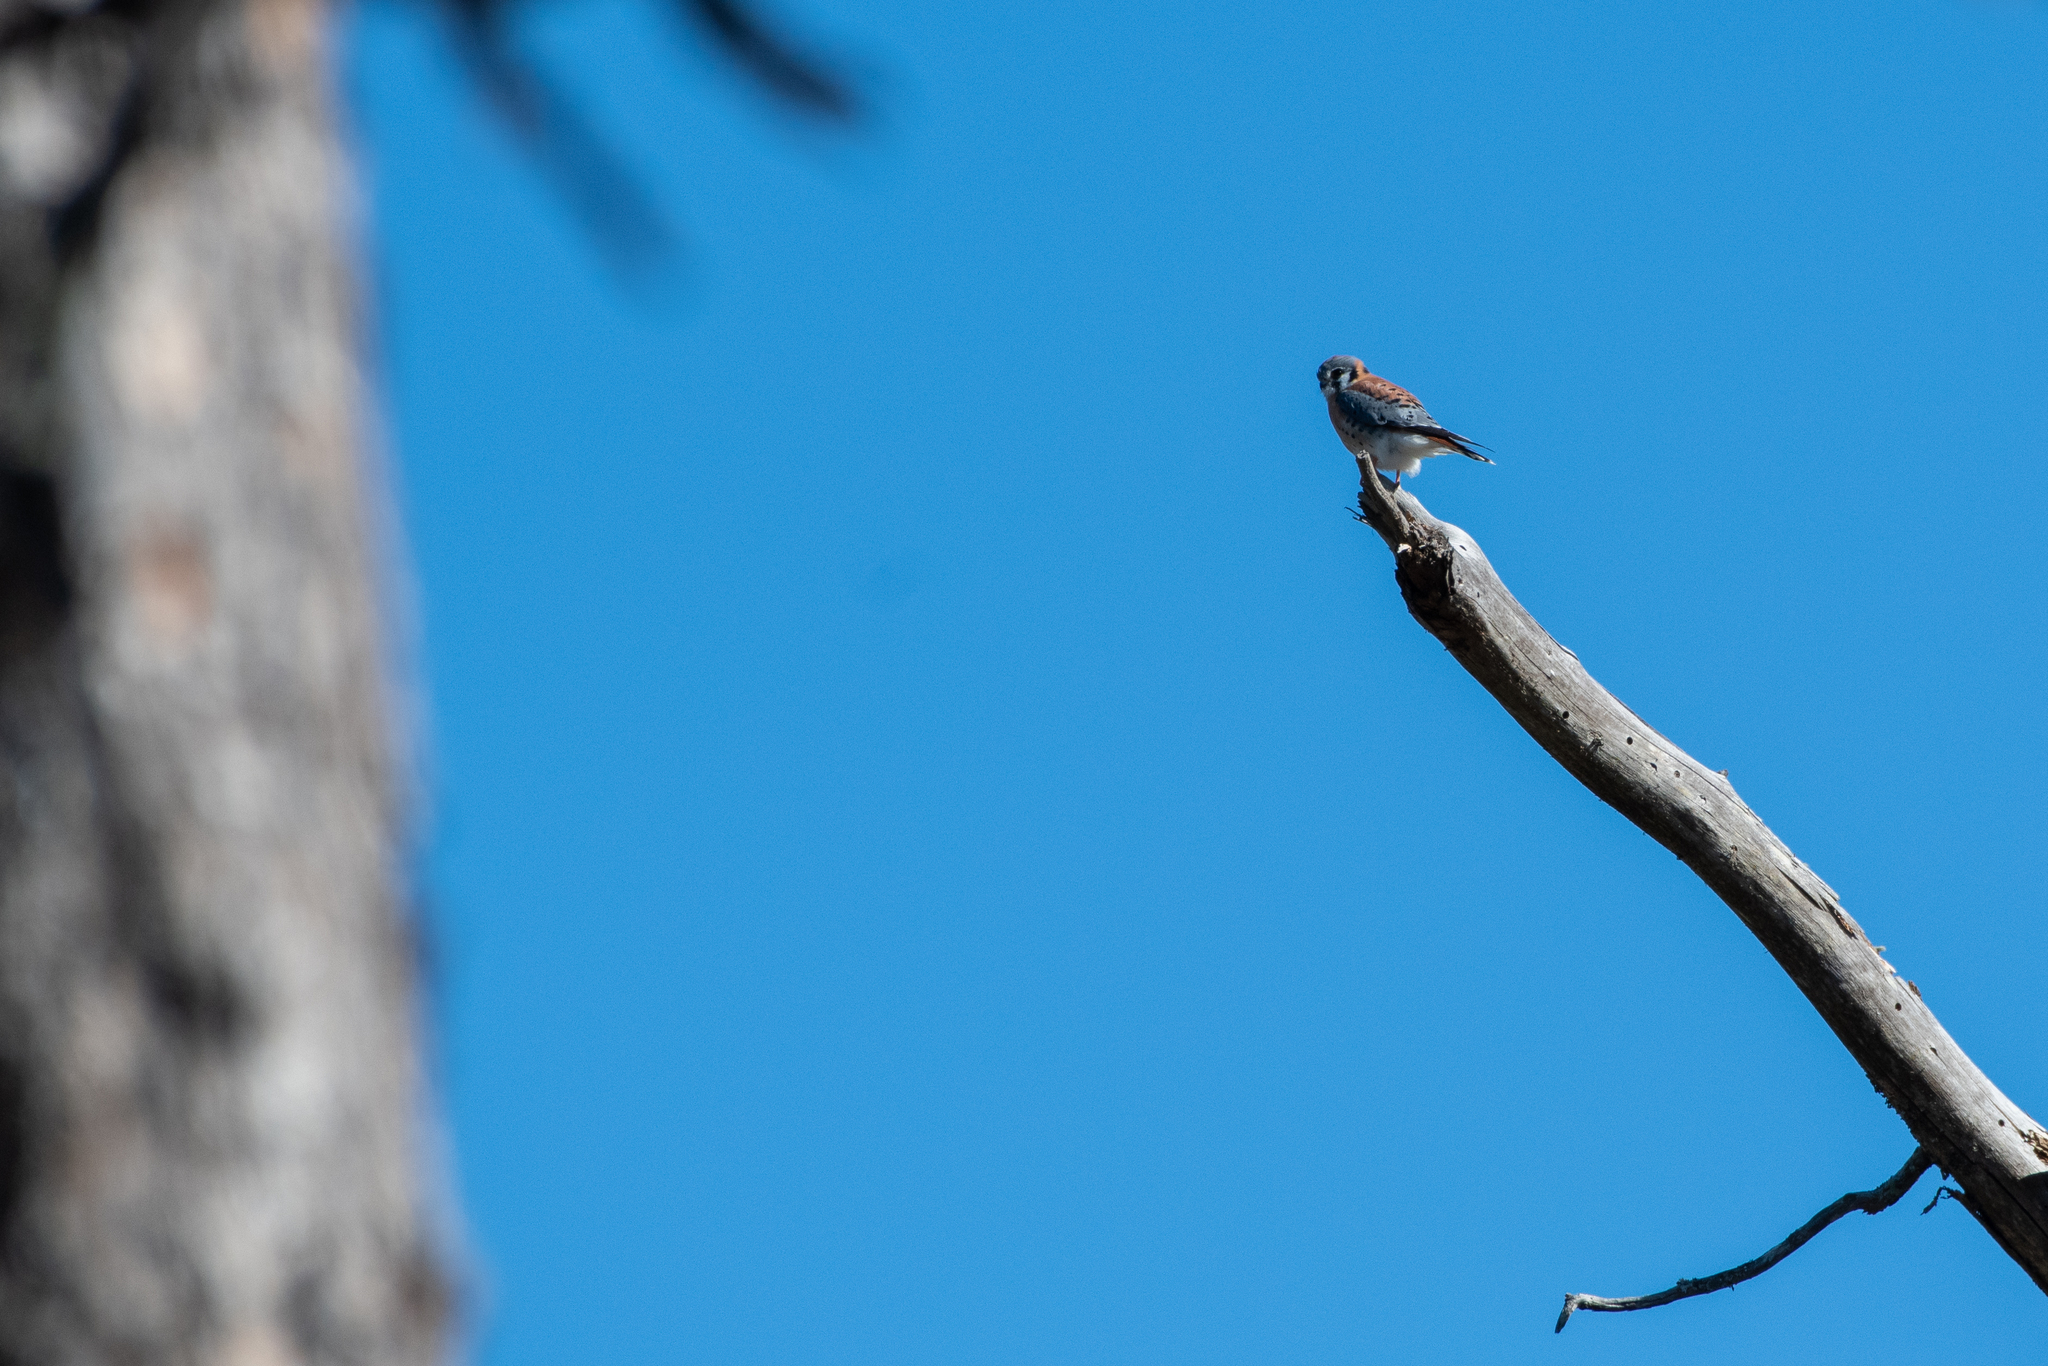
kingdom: Animalia
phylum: Chordata
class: Aves
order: Falconiformes
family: Falconidae
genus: Falco
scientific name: Falco sparverius
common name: American kestrel
